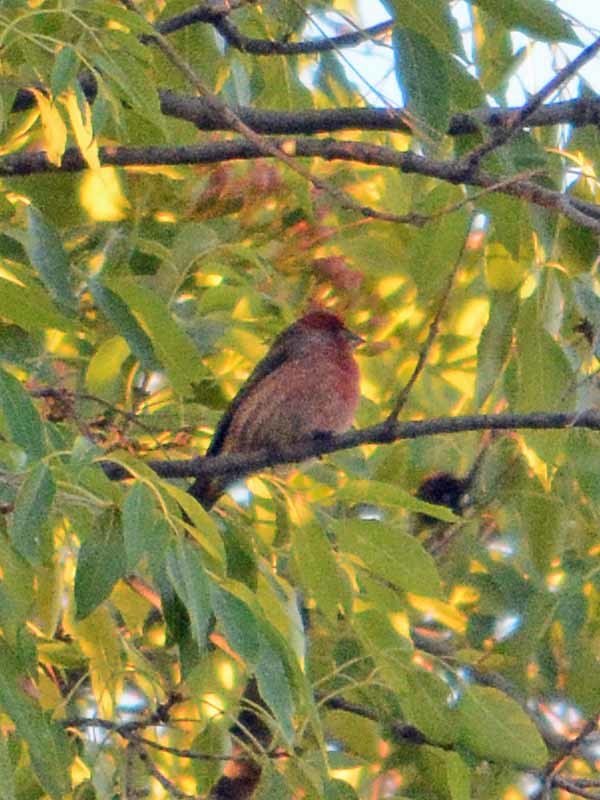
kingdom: Animalia
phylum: Chordata
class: Aves
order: Passeriformes
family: Fringillidae
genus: Haemorhous
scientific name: Haemorhous mexicanus
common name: House finch
